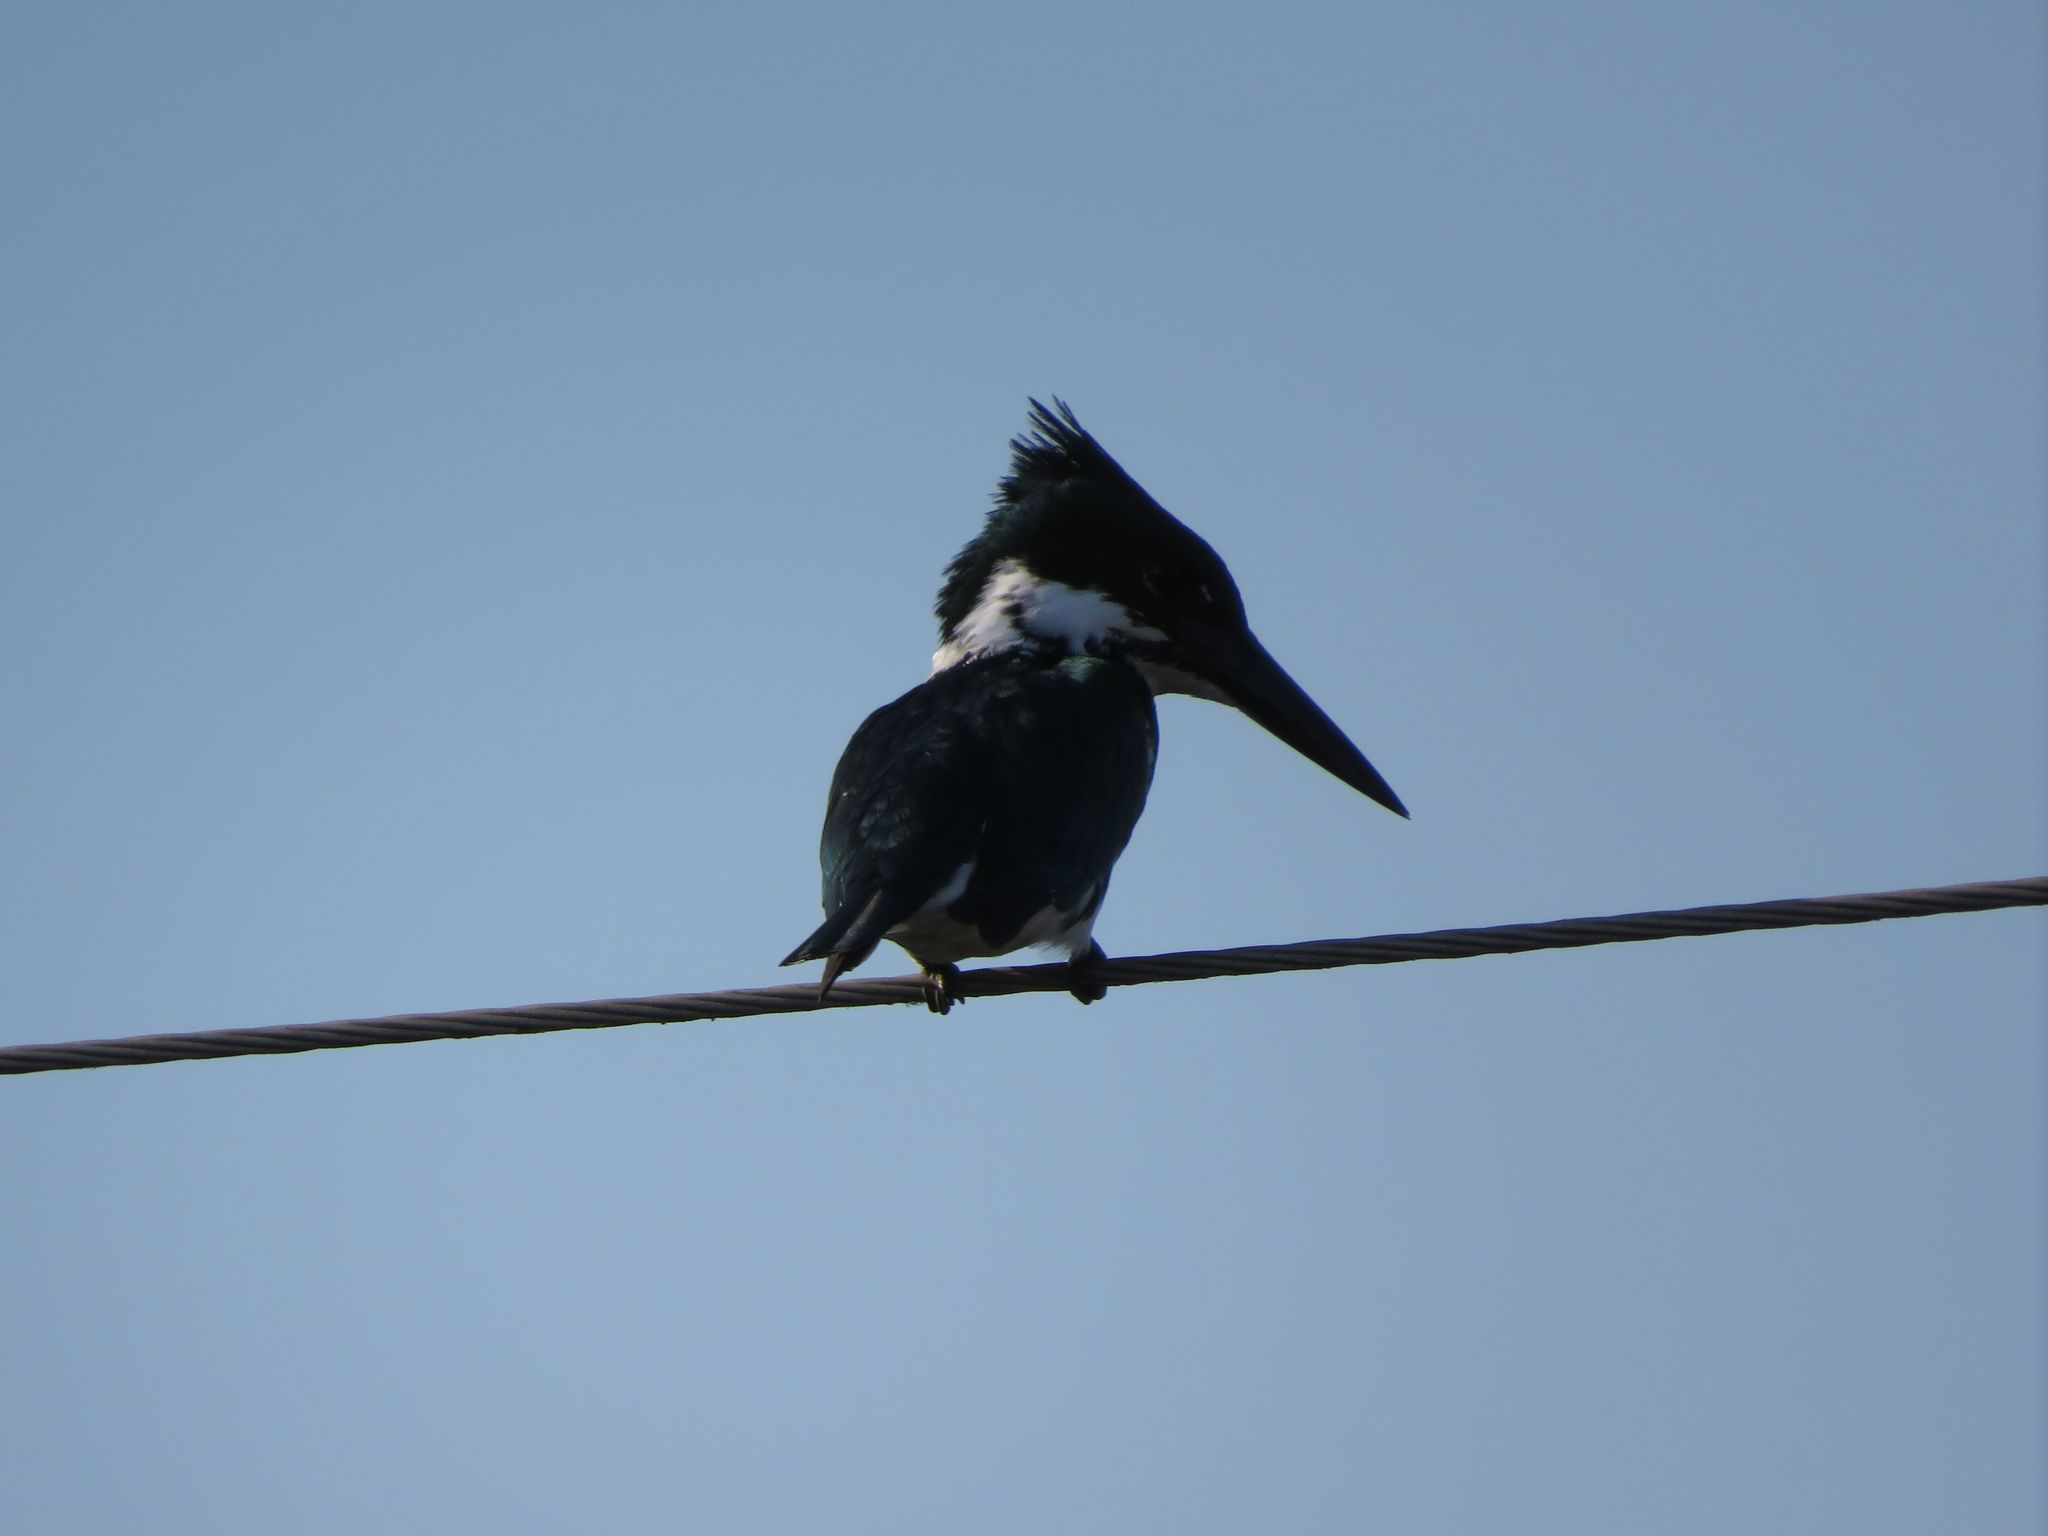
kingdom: Animalia
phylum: Chordata
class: Aves
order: Coraciiformes
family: Alcedinidae
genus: Chloroceryle
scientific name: Chloroceryle amazona
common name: Amazon kingfisher
